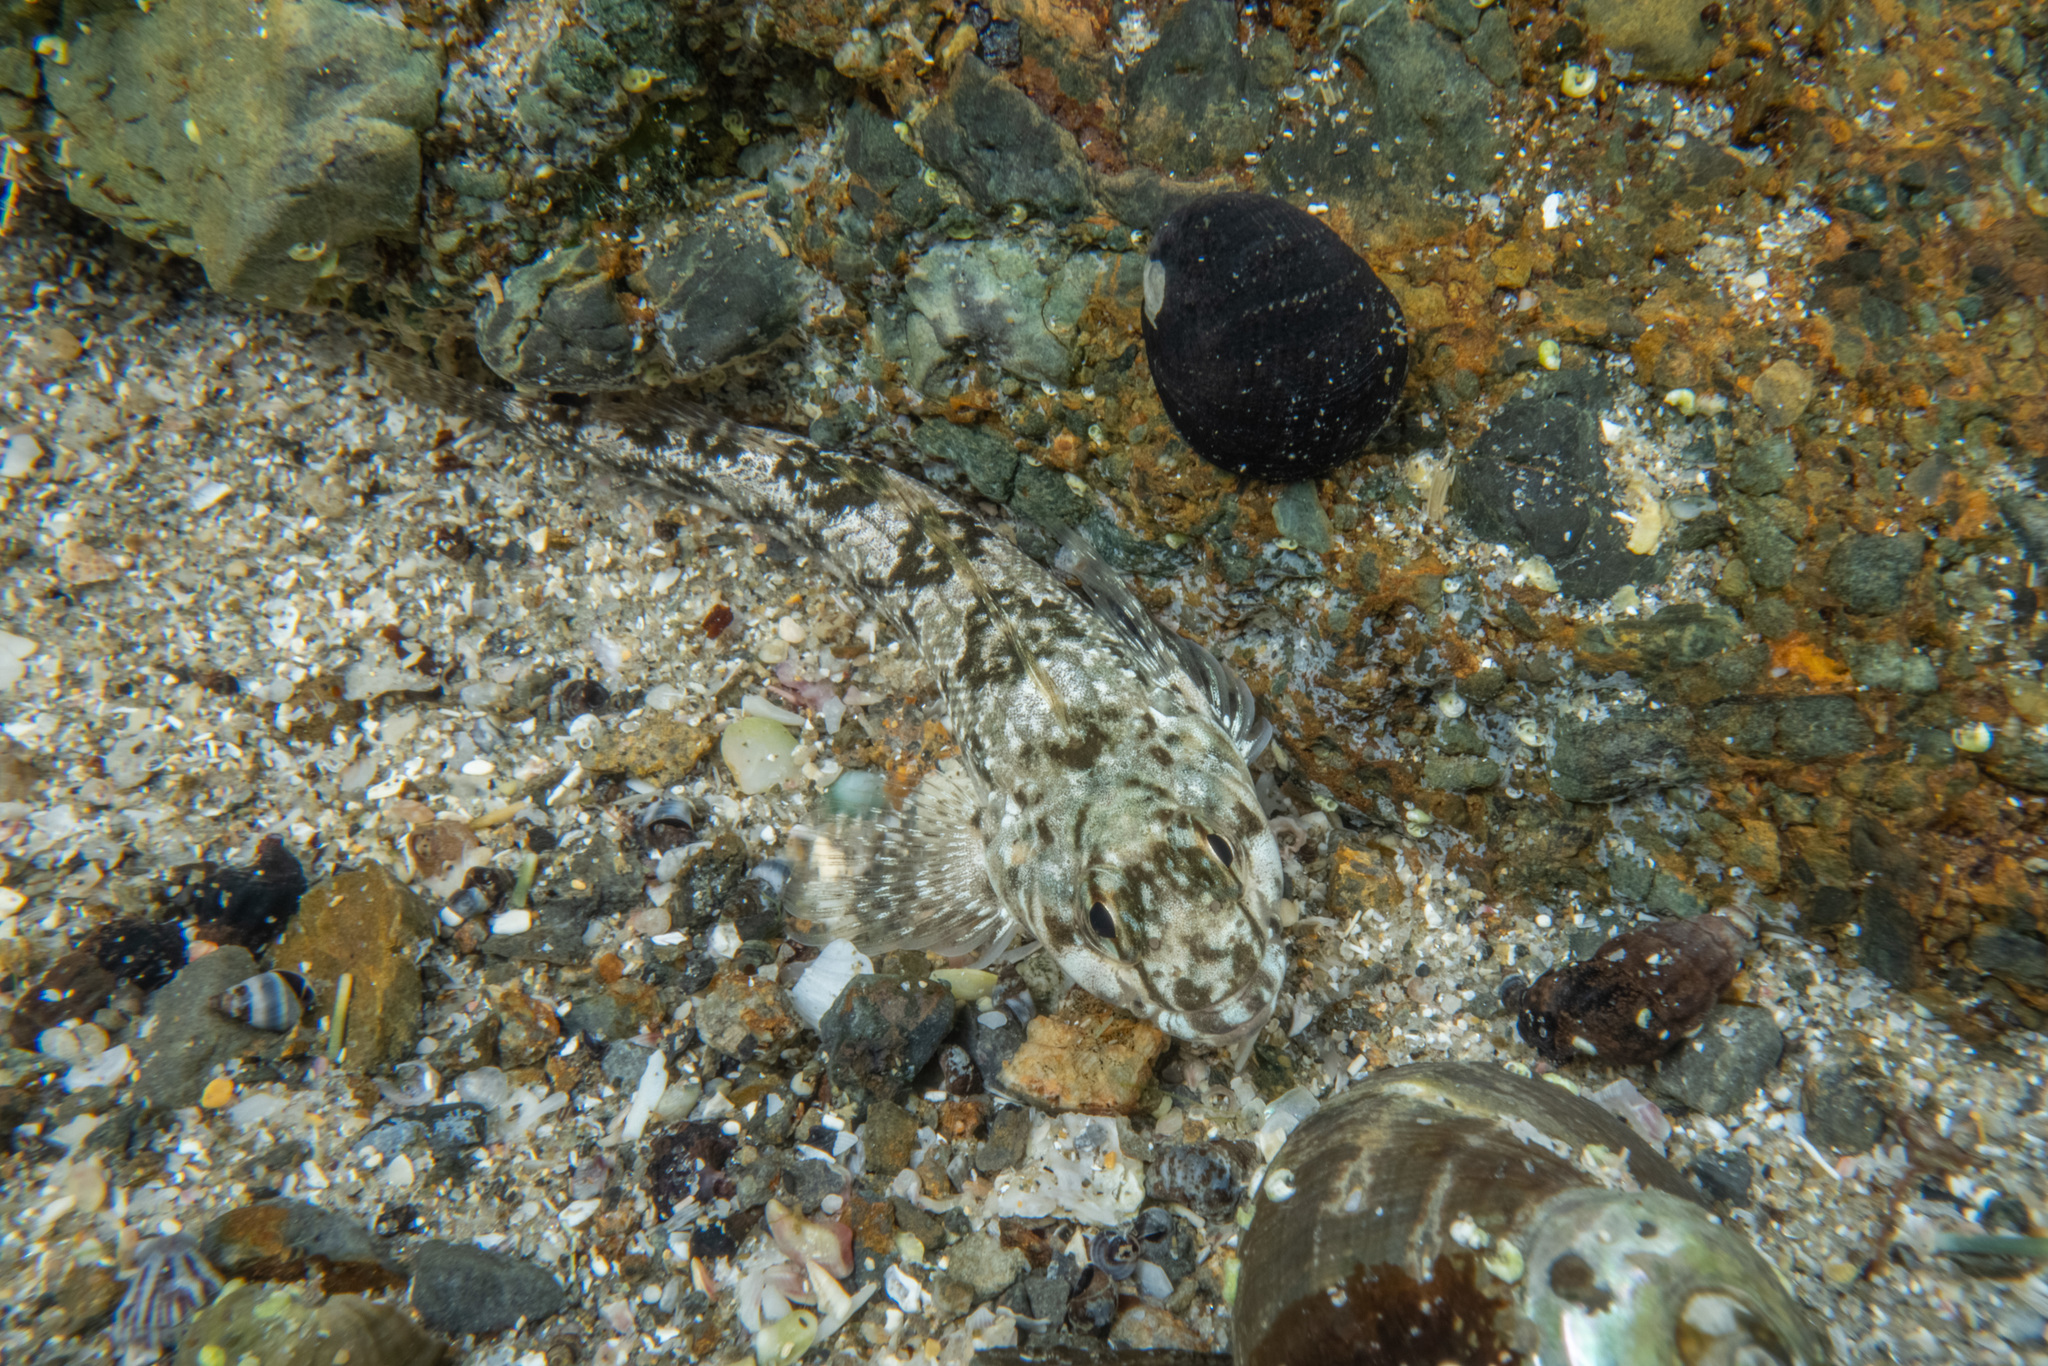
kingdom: Animalia
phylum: Chordata
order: Perciformes
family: Tripterygiidae
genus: Bellapiscis
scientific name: Bellapiscis medius
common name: Twister
